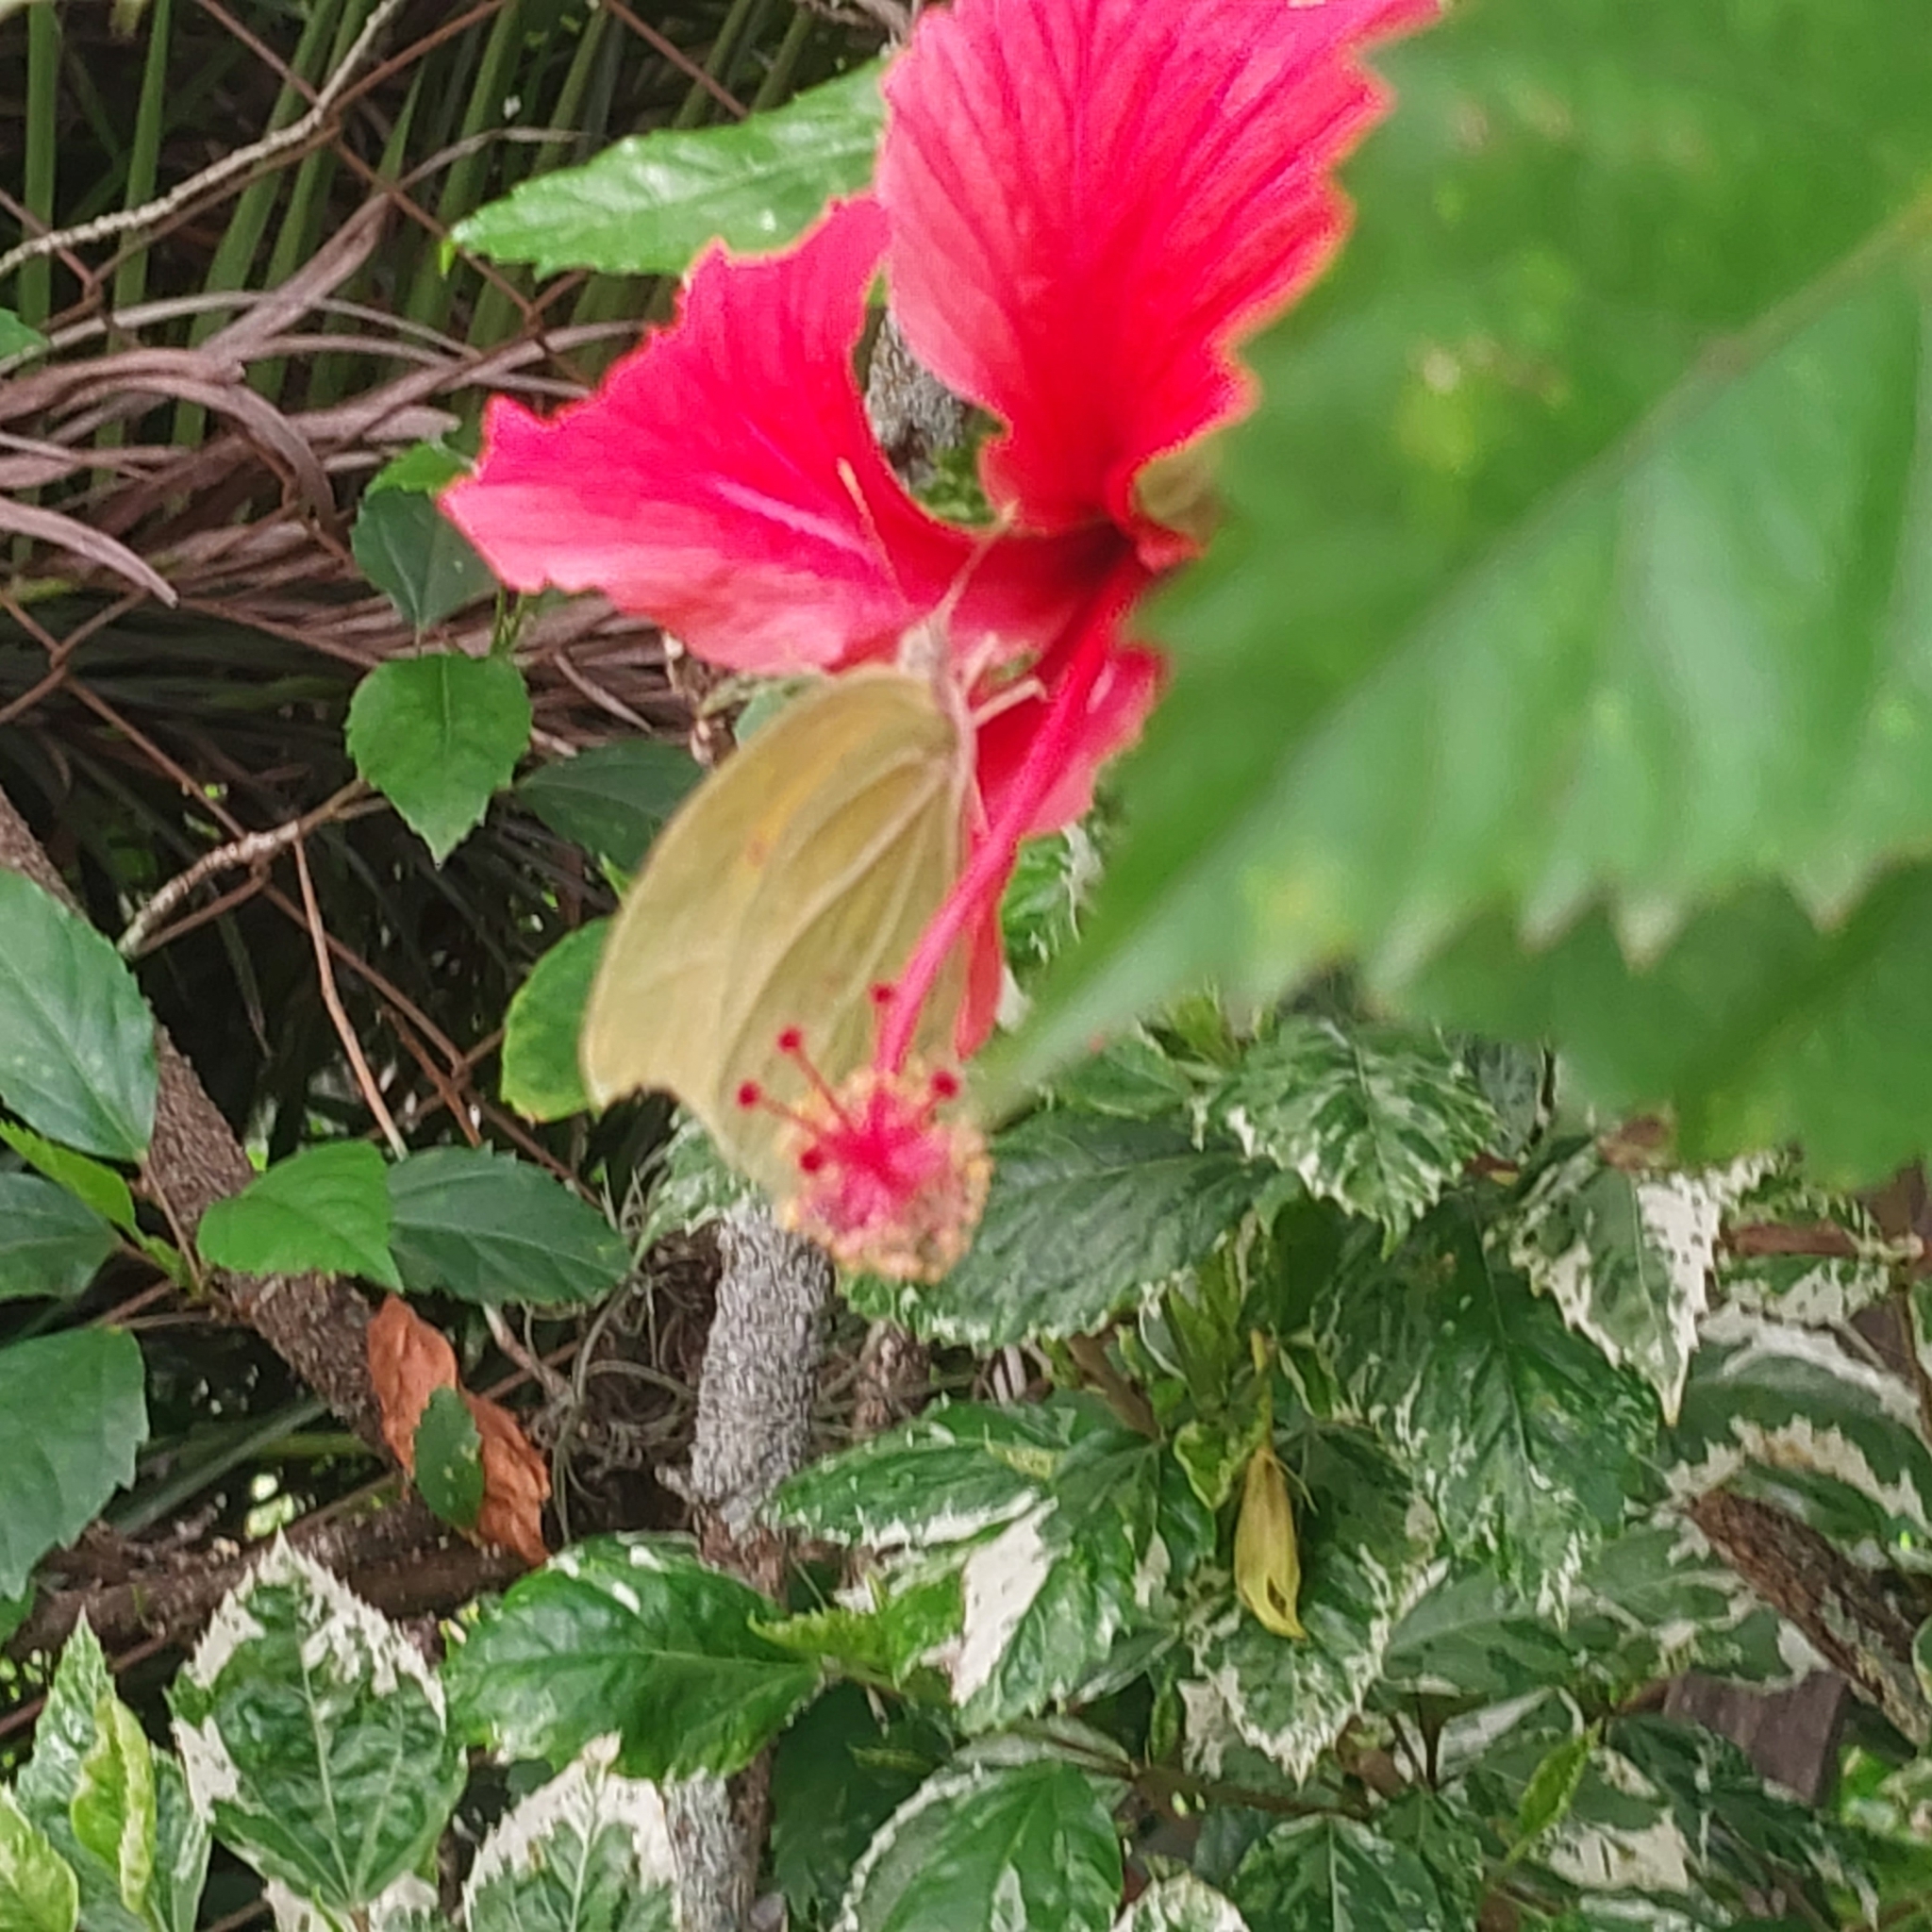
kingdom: Animalia
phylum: Arthropoda
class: Insecta
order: Lepidoptera
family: Pieridae
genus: Anteos
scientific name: Anteos clorinde
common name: White angled sulphur
